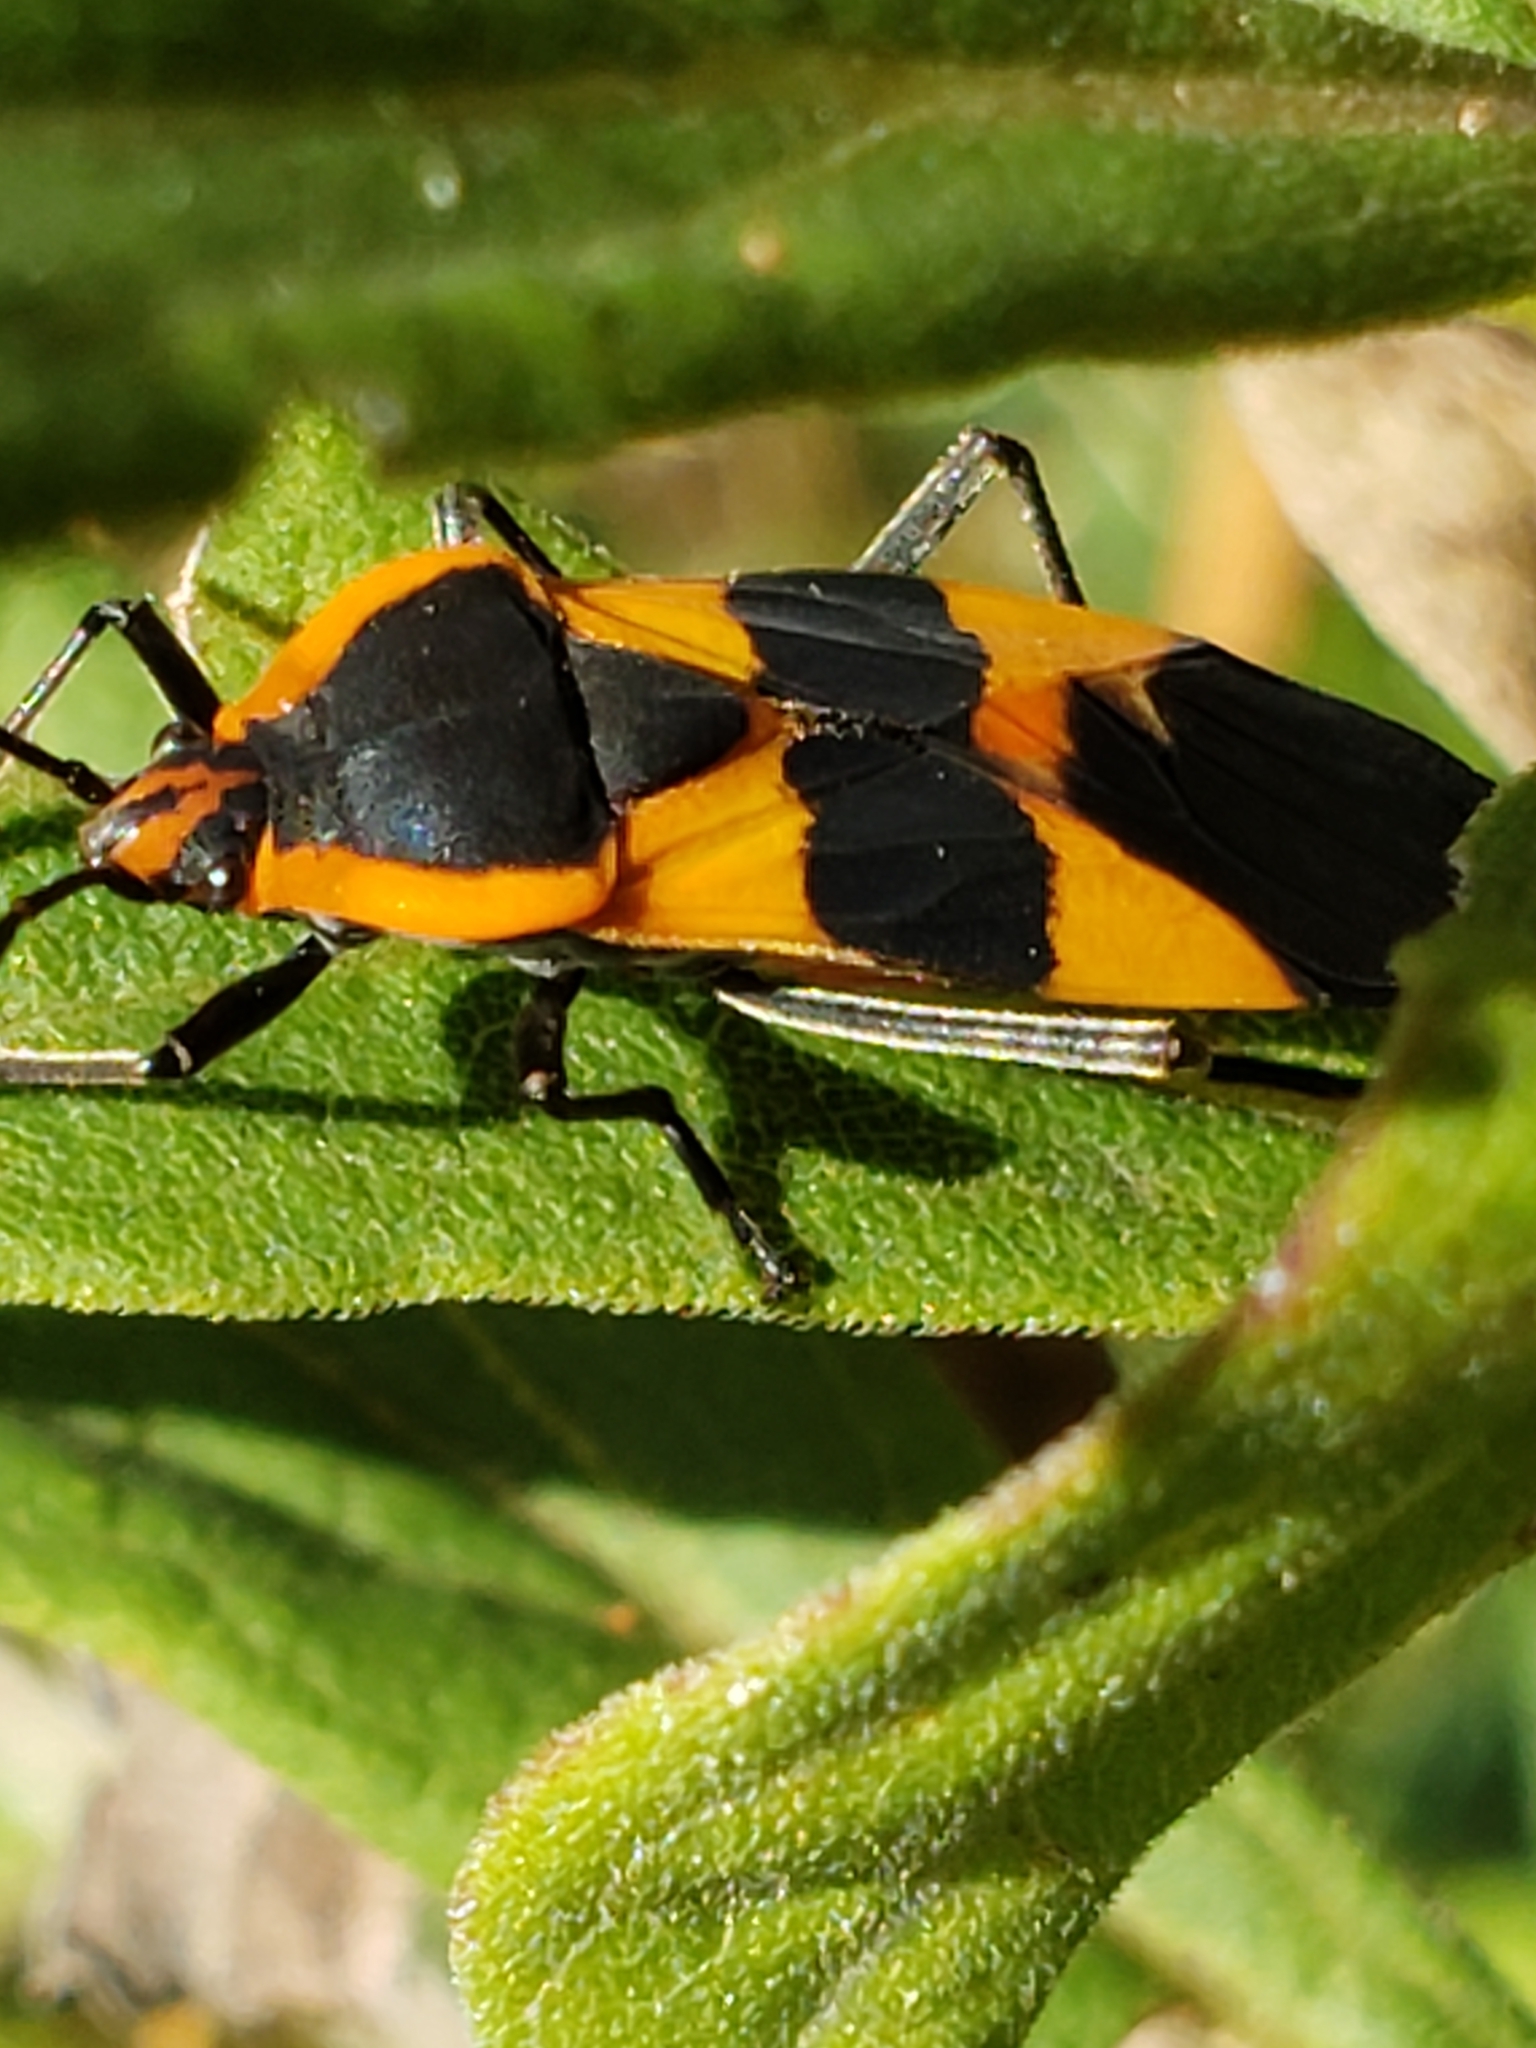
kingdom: Animalia
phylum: Arthropoda
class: Insecta
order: Hemiptera
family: Lygaeidae
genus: Oncopeltus
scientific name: Oncopeltus fasciatus
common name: Large milkweed bug
